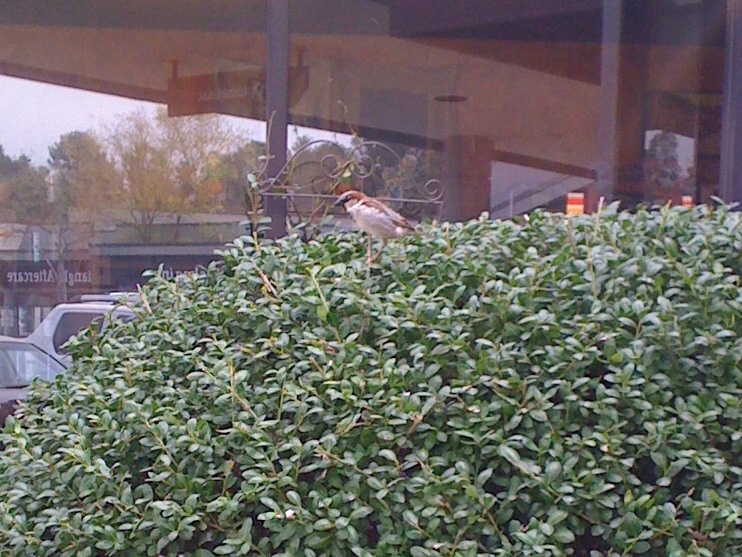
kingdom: Animalia
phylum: Chordata
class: Aves
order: Passeriformes
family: Passeridae
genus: Passer
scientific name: Passer domesticus
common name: House sparrow
